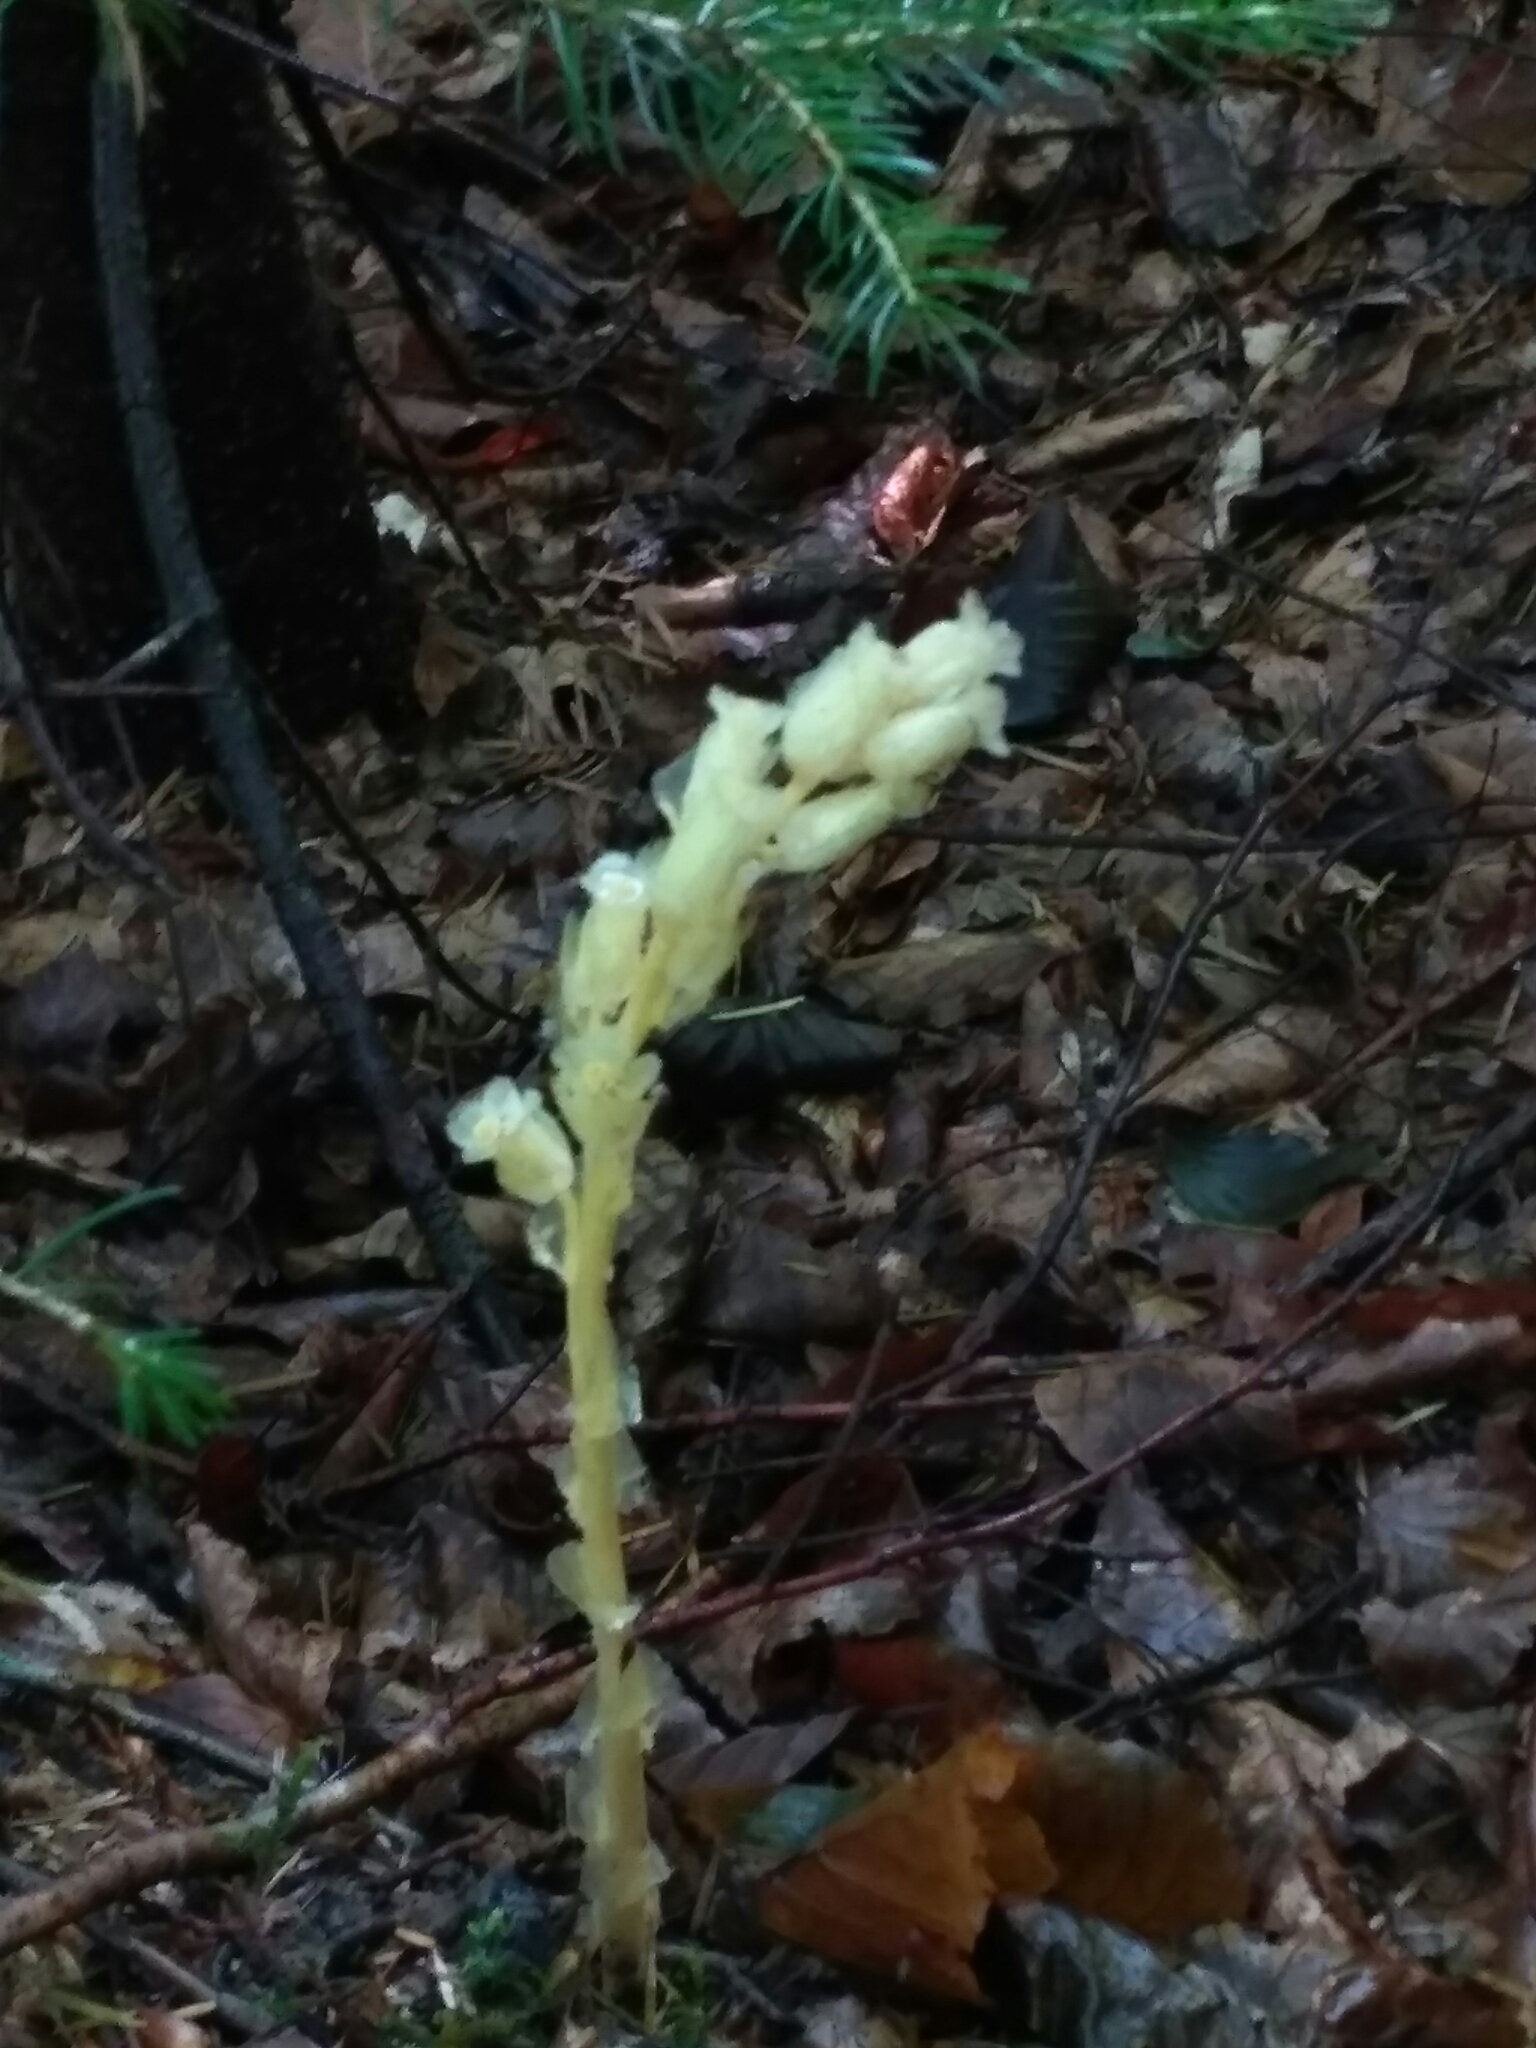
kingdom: Plantae
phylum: Tracheophyta
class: Magnoliopsida
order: Ericales
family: Ericaceae
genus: Hypopitys
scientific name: Hypopitys monotropa
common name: Yellow bird's-nest
